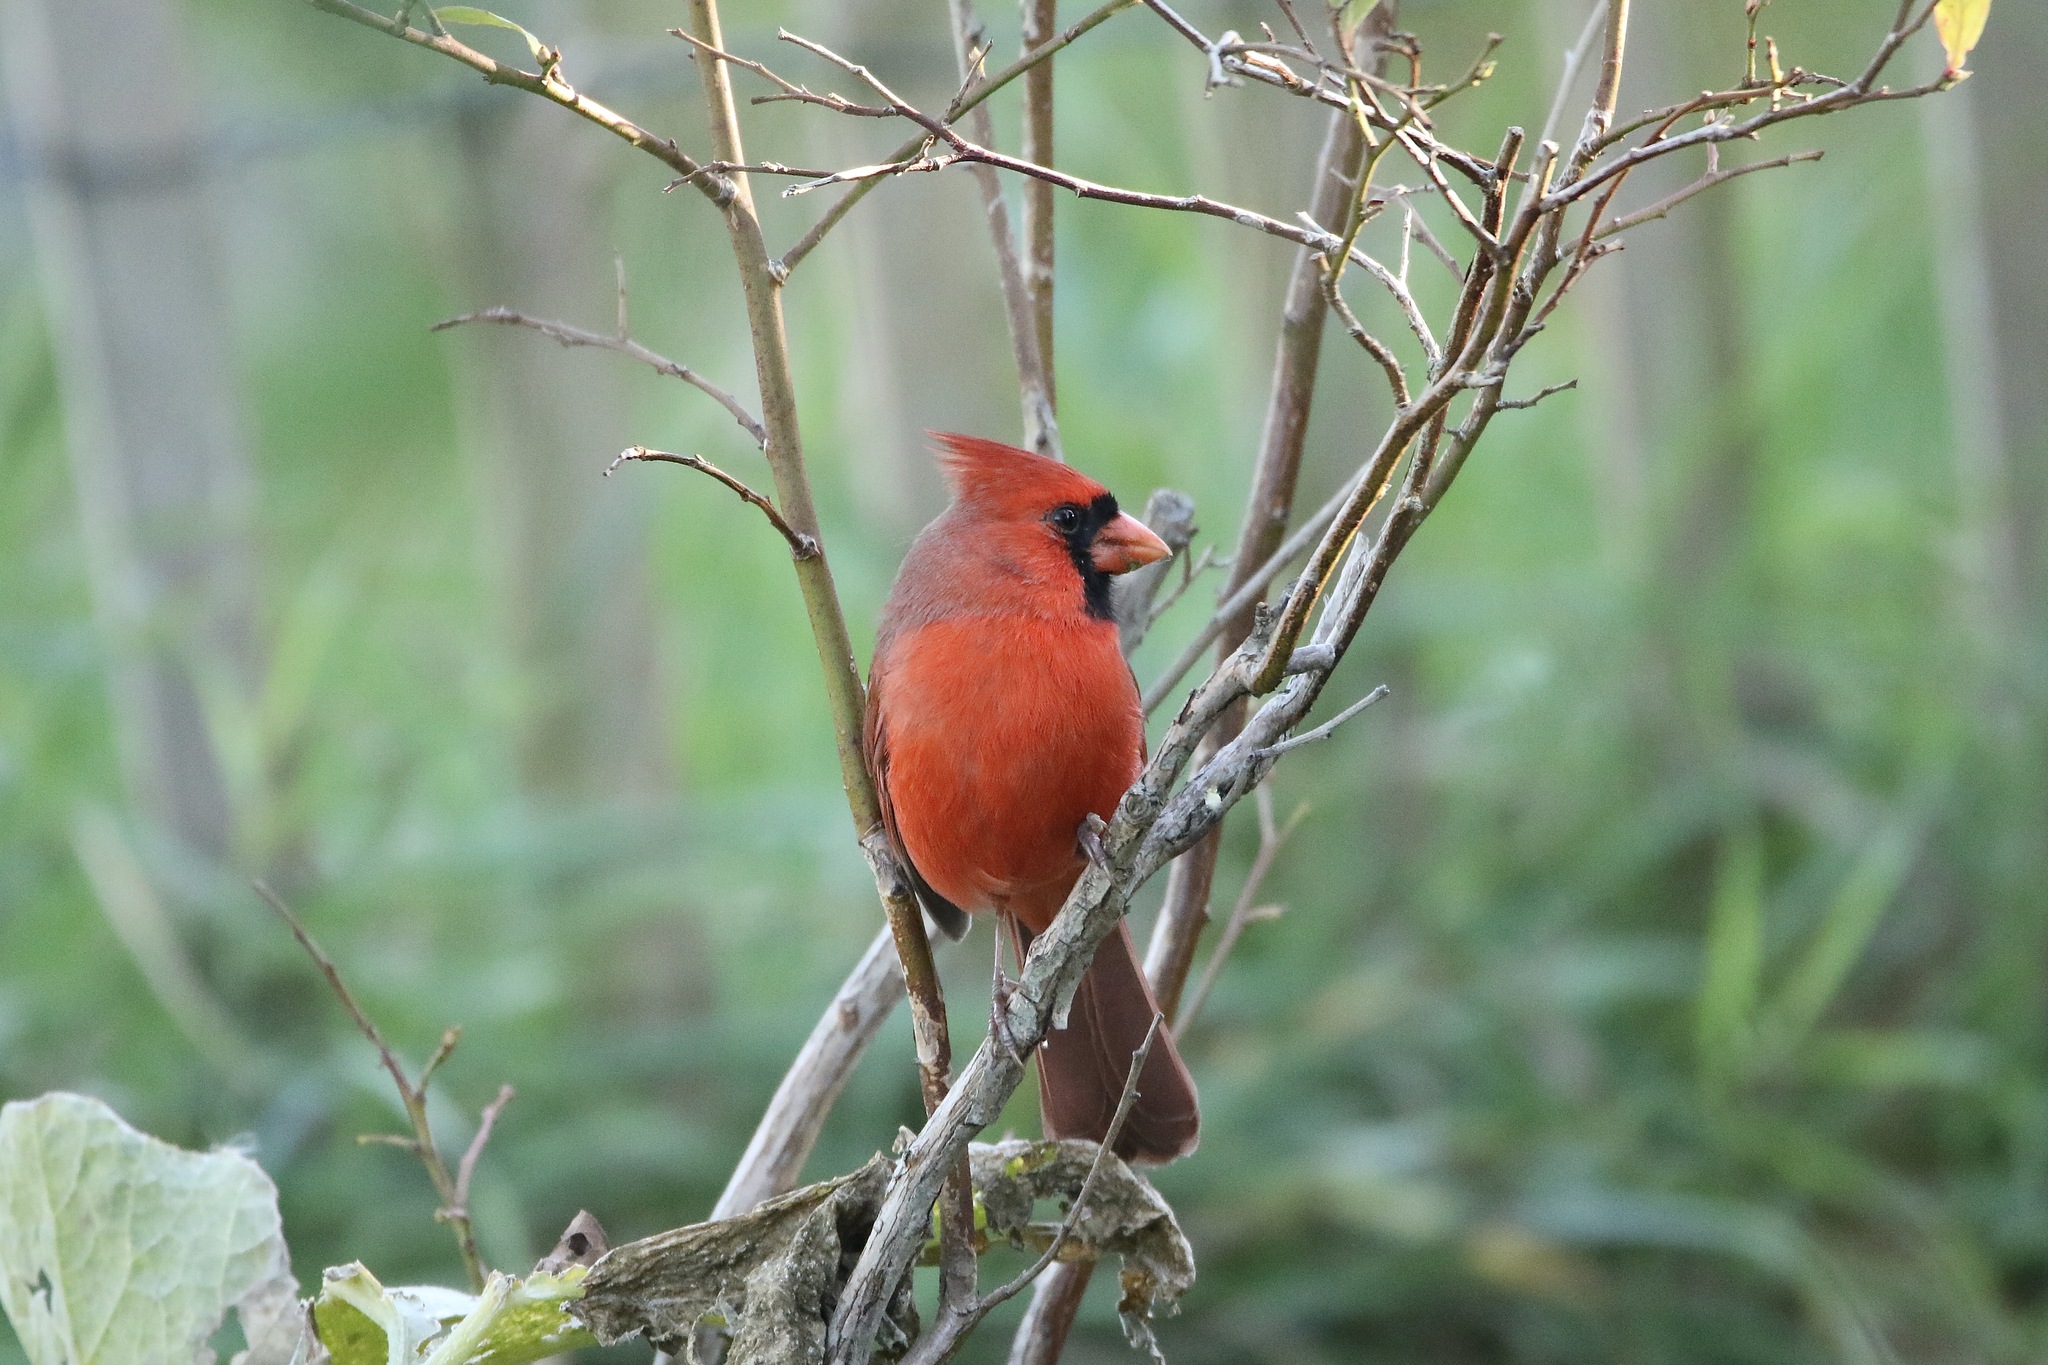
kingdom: Animalia
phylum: Chordata
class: Aves
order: Passeriformes
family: Cardinalidae
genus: Cardinalis
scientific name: Cardinalis cardinalis
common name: Northern cardinal
